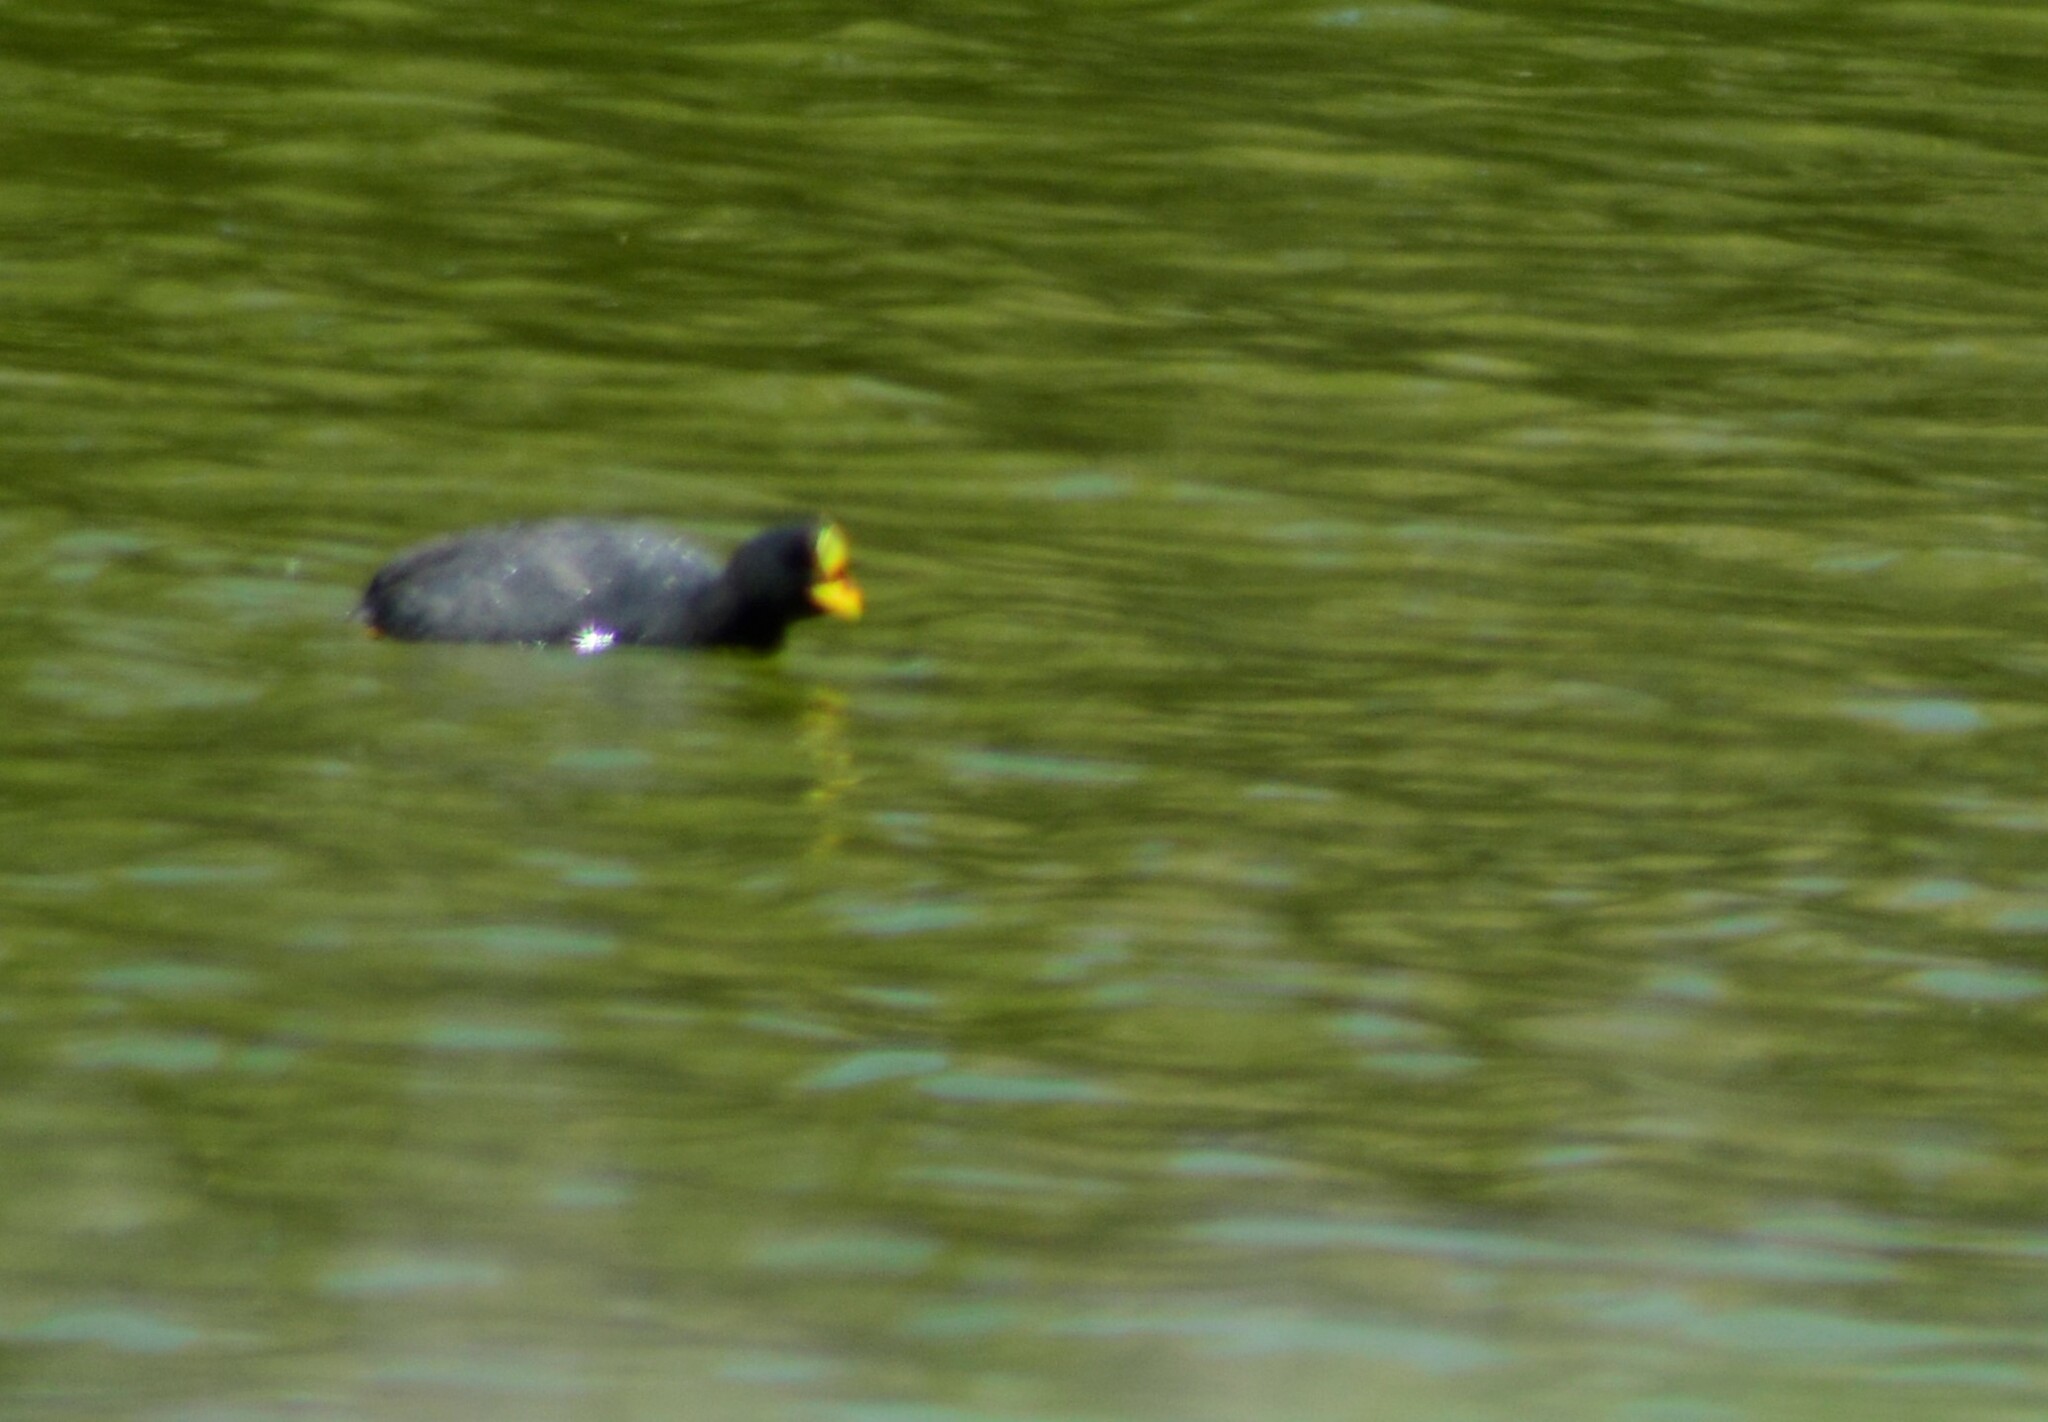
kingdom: Animalia
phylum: Chordata
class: Aves
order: Gruiformes
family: Rallidae
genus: Fulica
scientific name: Fulica armillata
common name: Red-gartered coot
